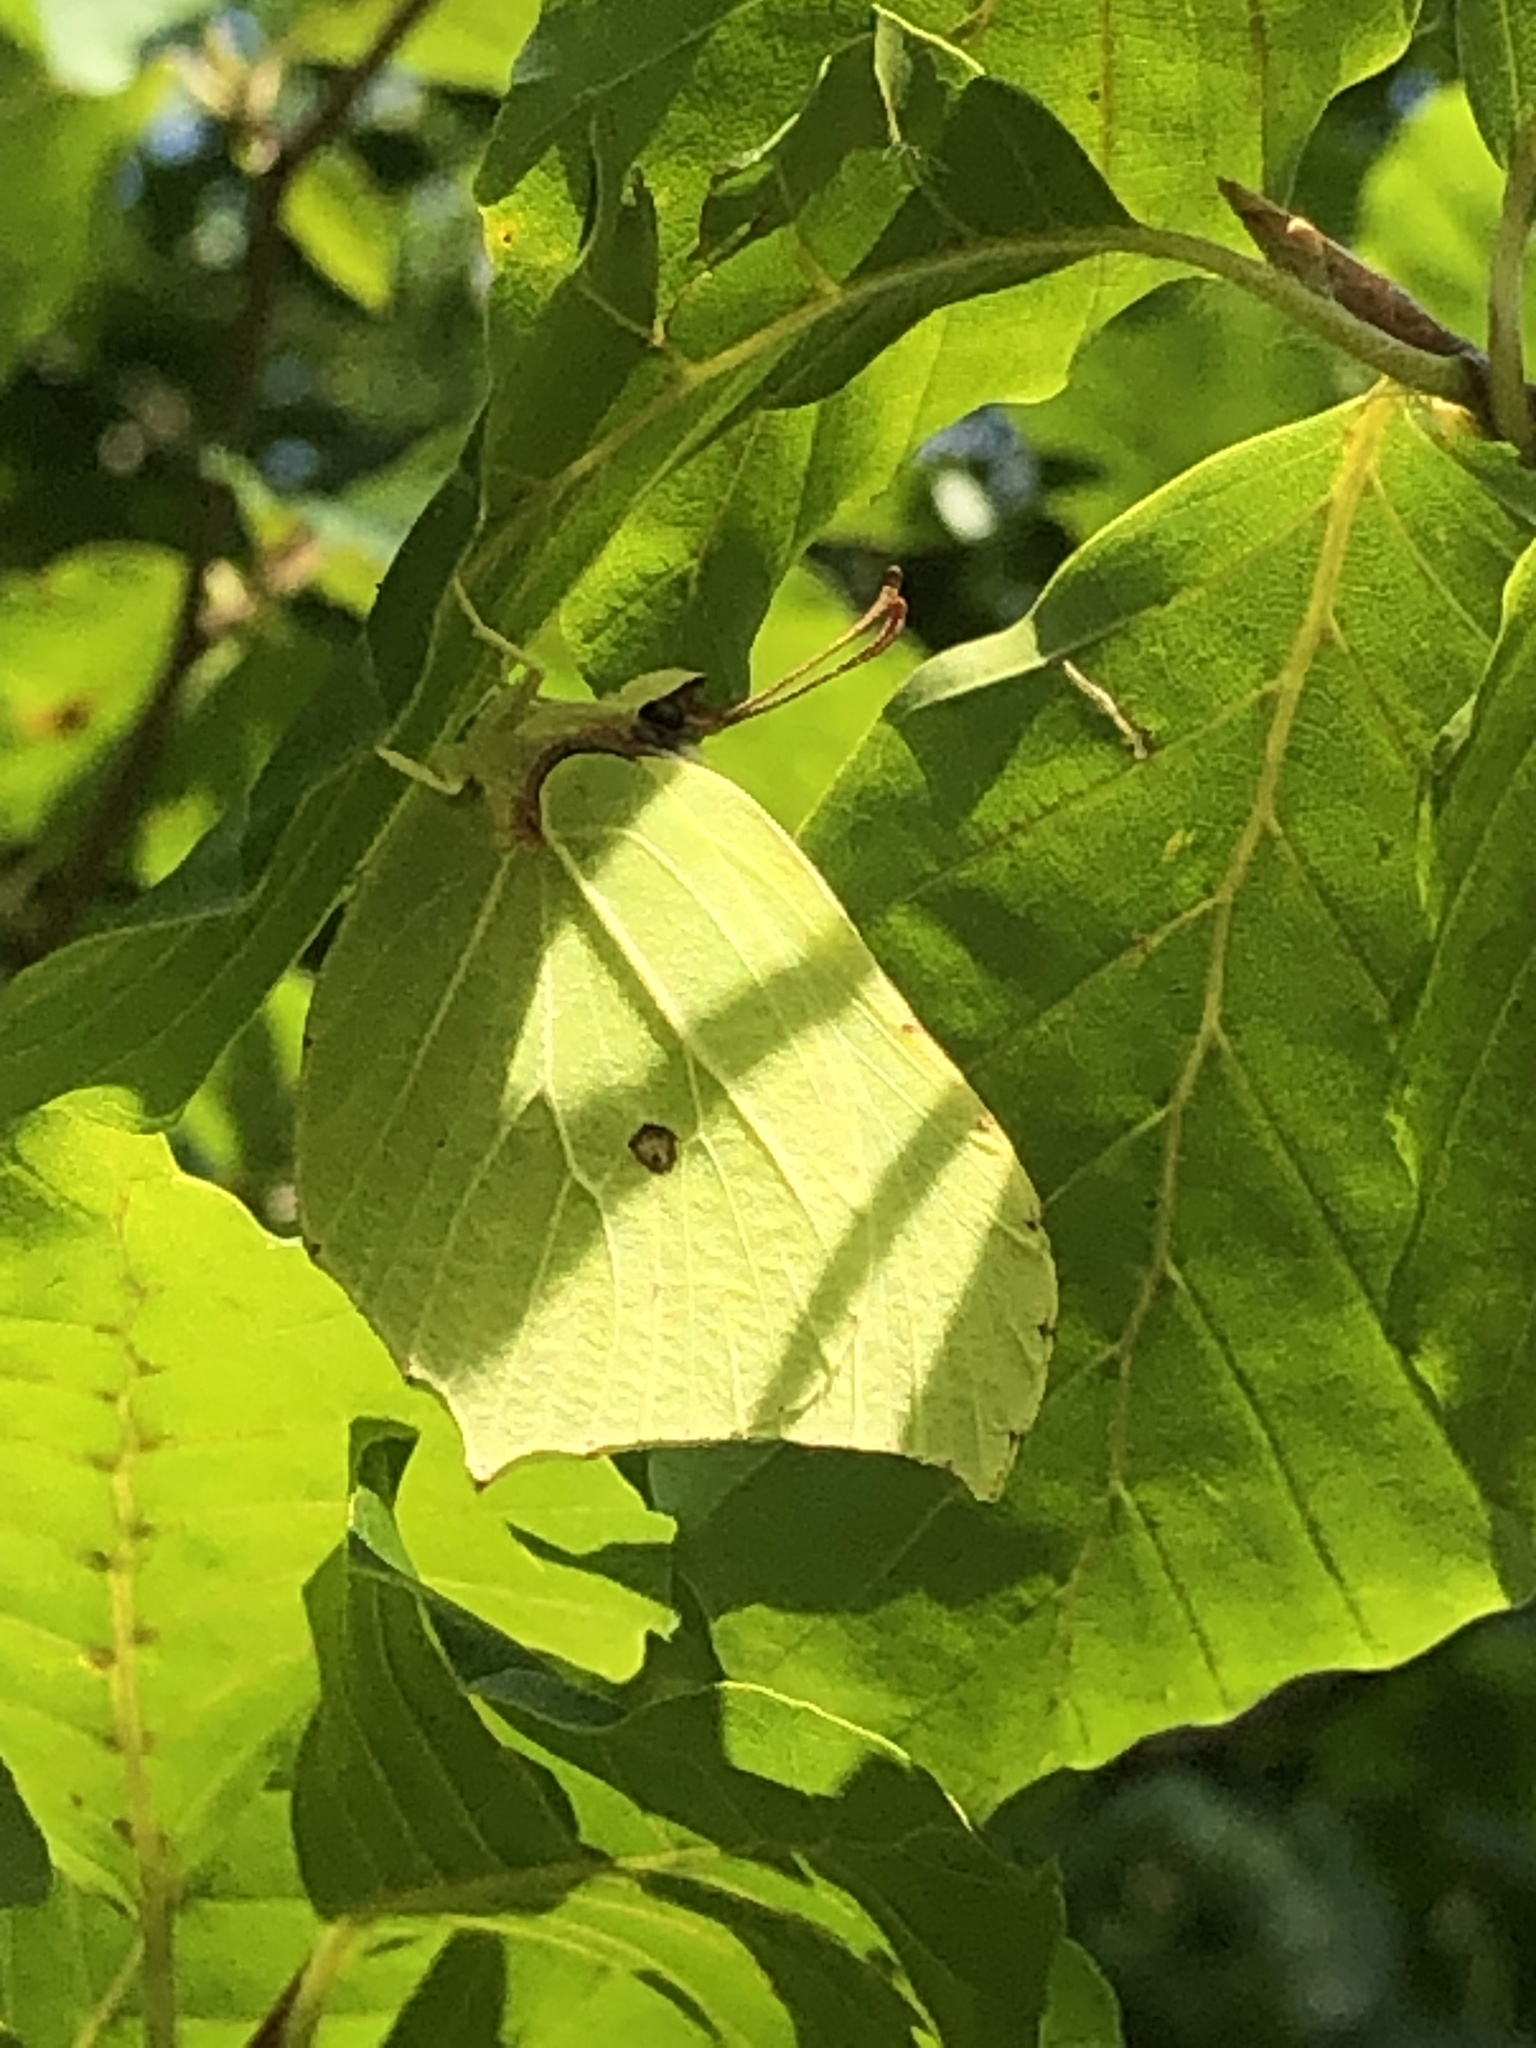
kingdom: Animalia
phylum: Arthropoda
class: Insecta
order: Lepidoptera
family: Pieridae
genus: Gonepteryx
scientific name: Gonepteryx rhamni
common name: Brimstone
